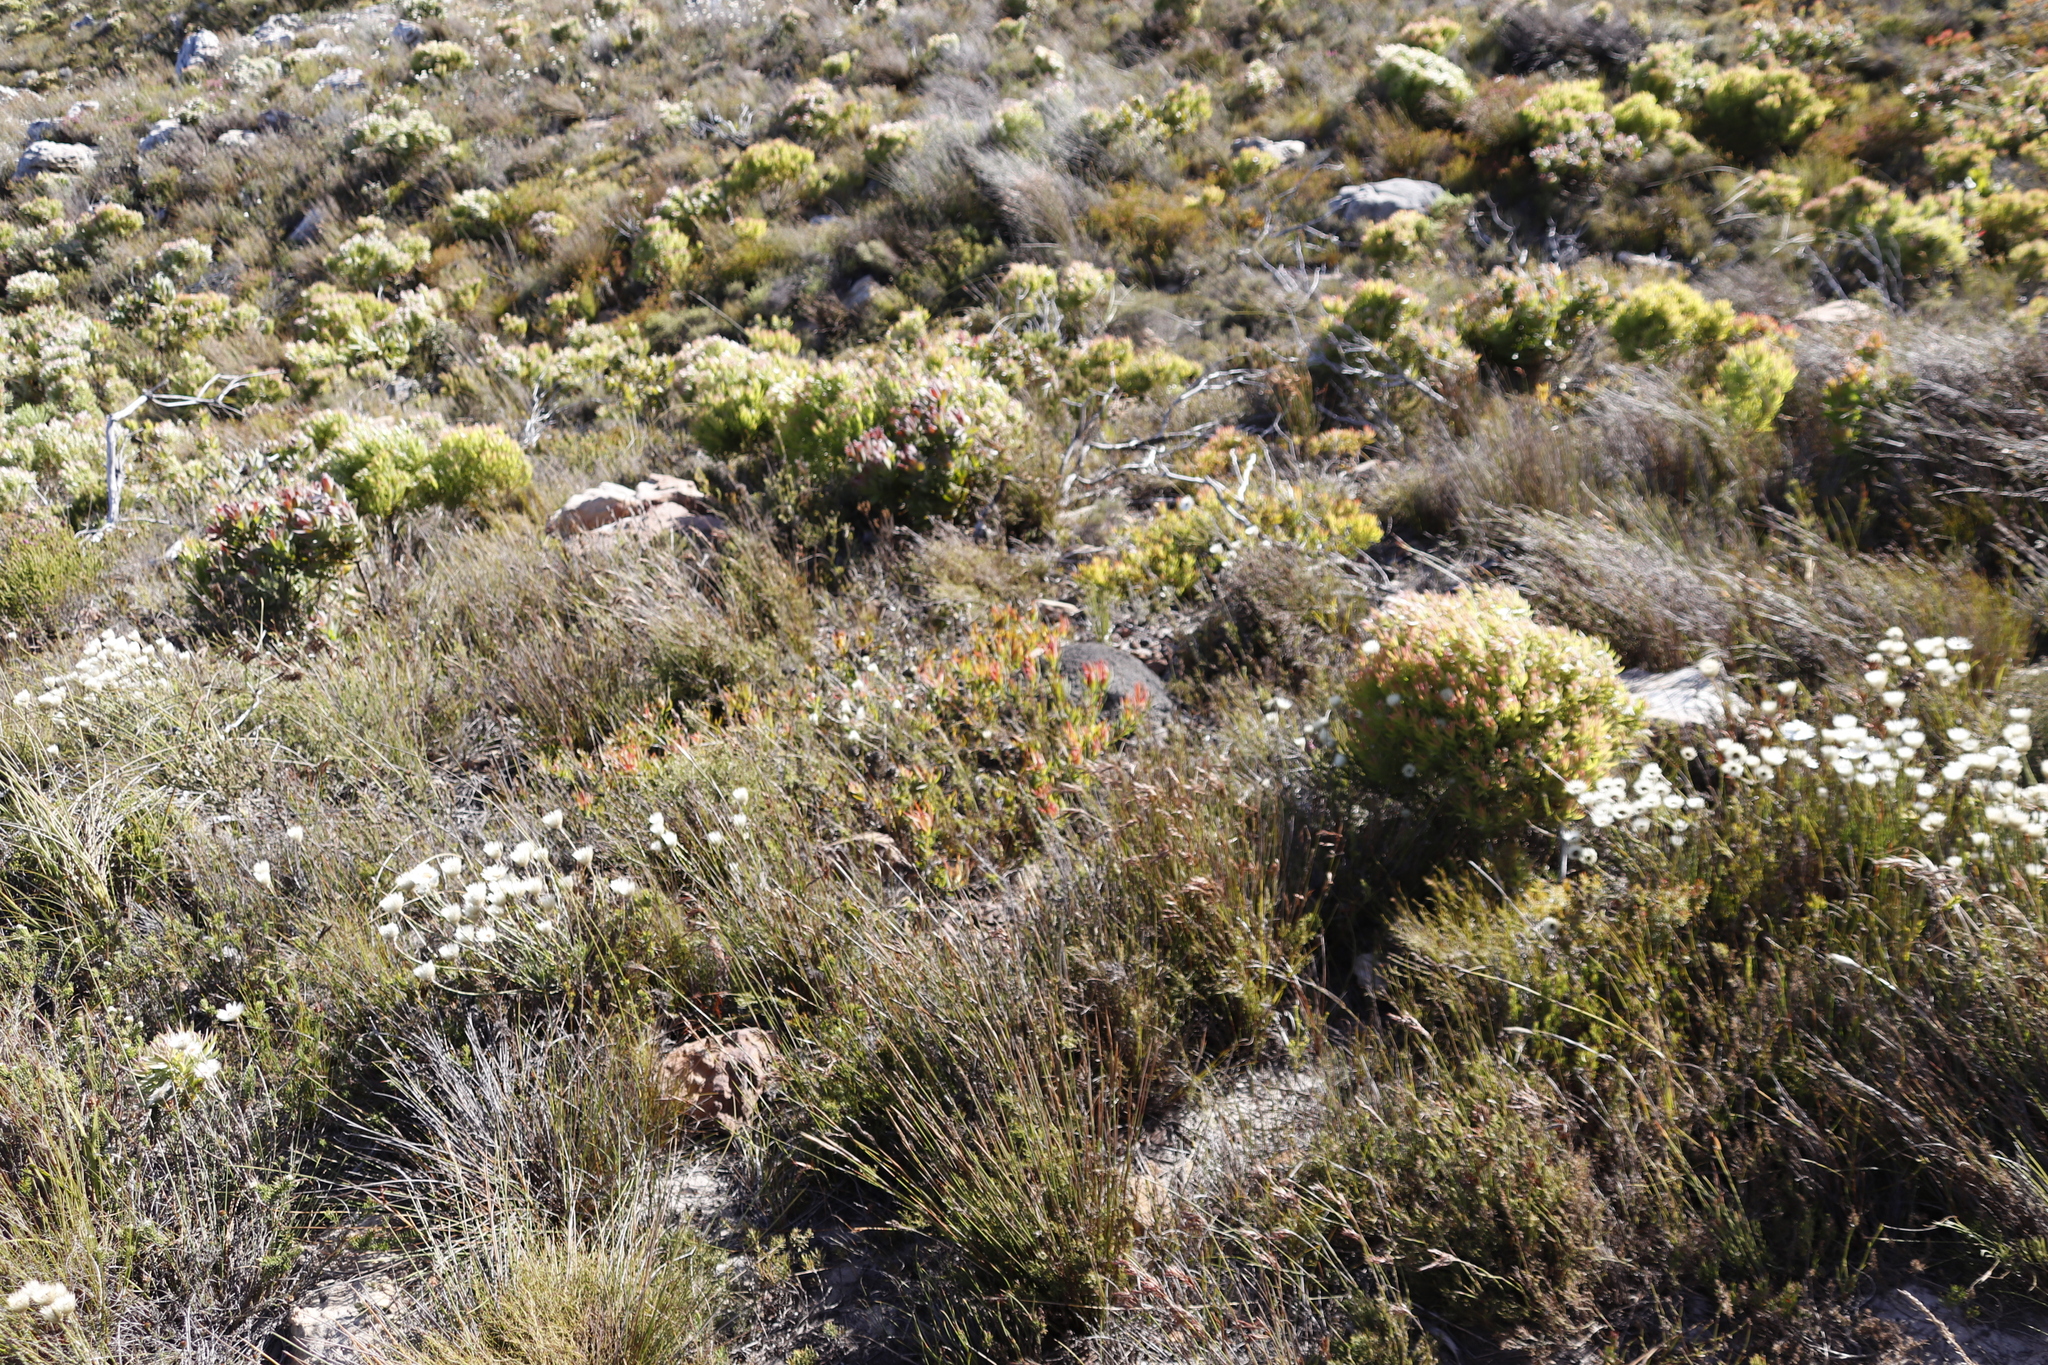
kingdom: Plantae
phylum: Tracheophyta
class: Magnoliopsida
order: Proteales
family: Proteaceae
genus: Leucadendron
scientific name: Leucadendron salignum
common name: Common sunshine conebush
